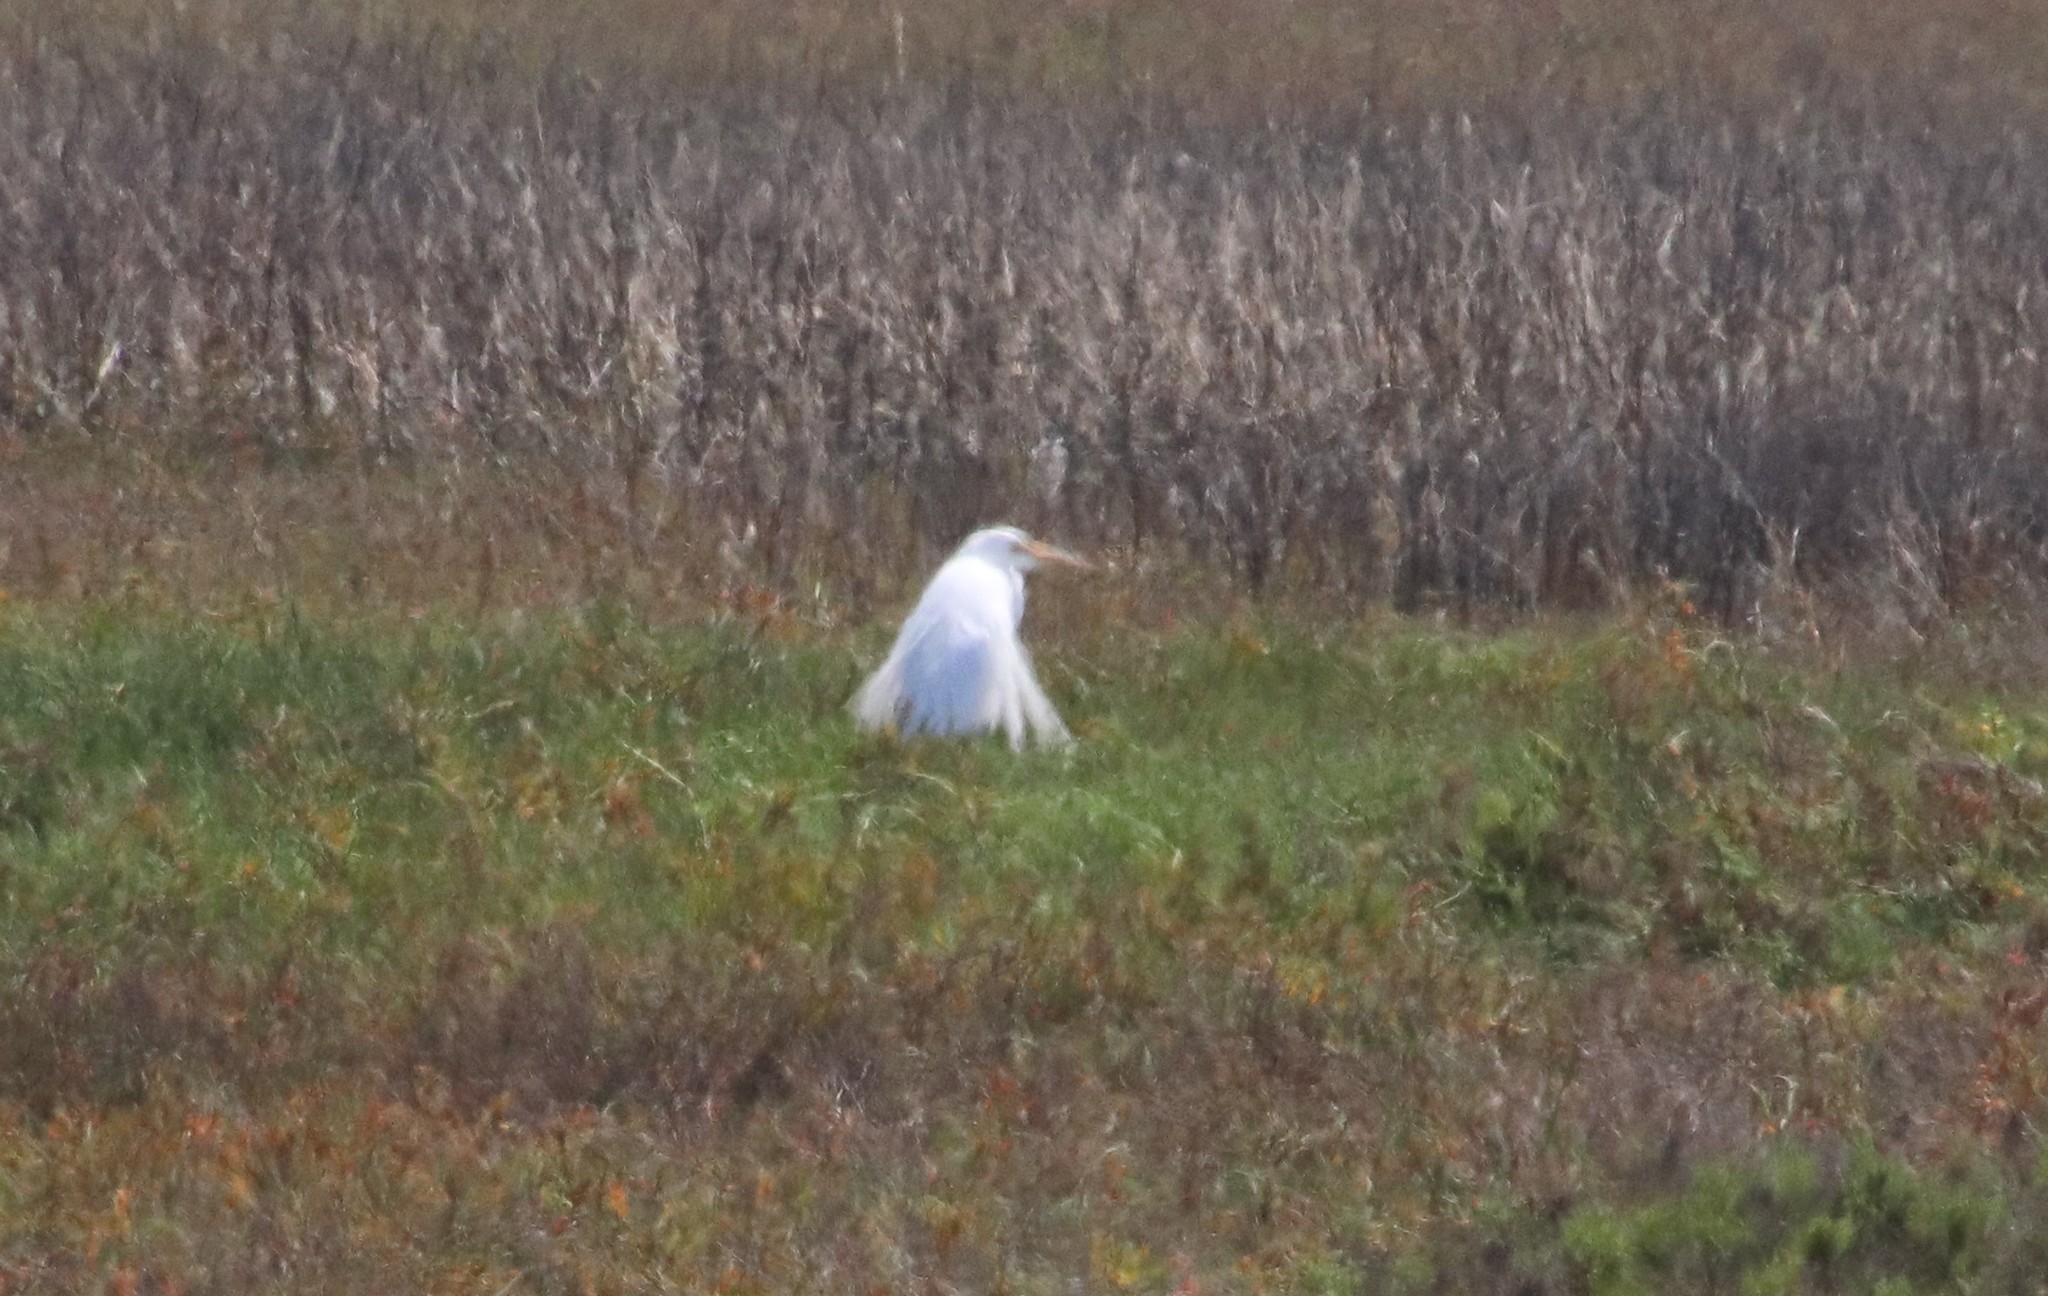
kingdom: Animalia
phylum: Chordata
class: Aves
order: Pelecaniformes
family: Ardeidae
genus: Ardea
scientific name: Ardea alba
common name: Great egret
